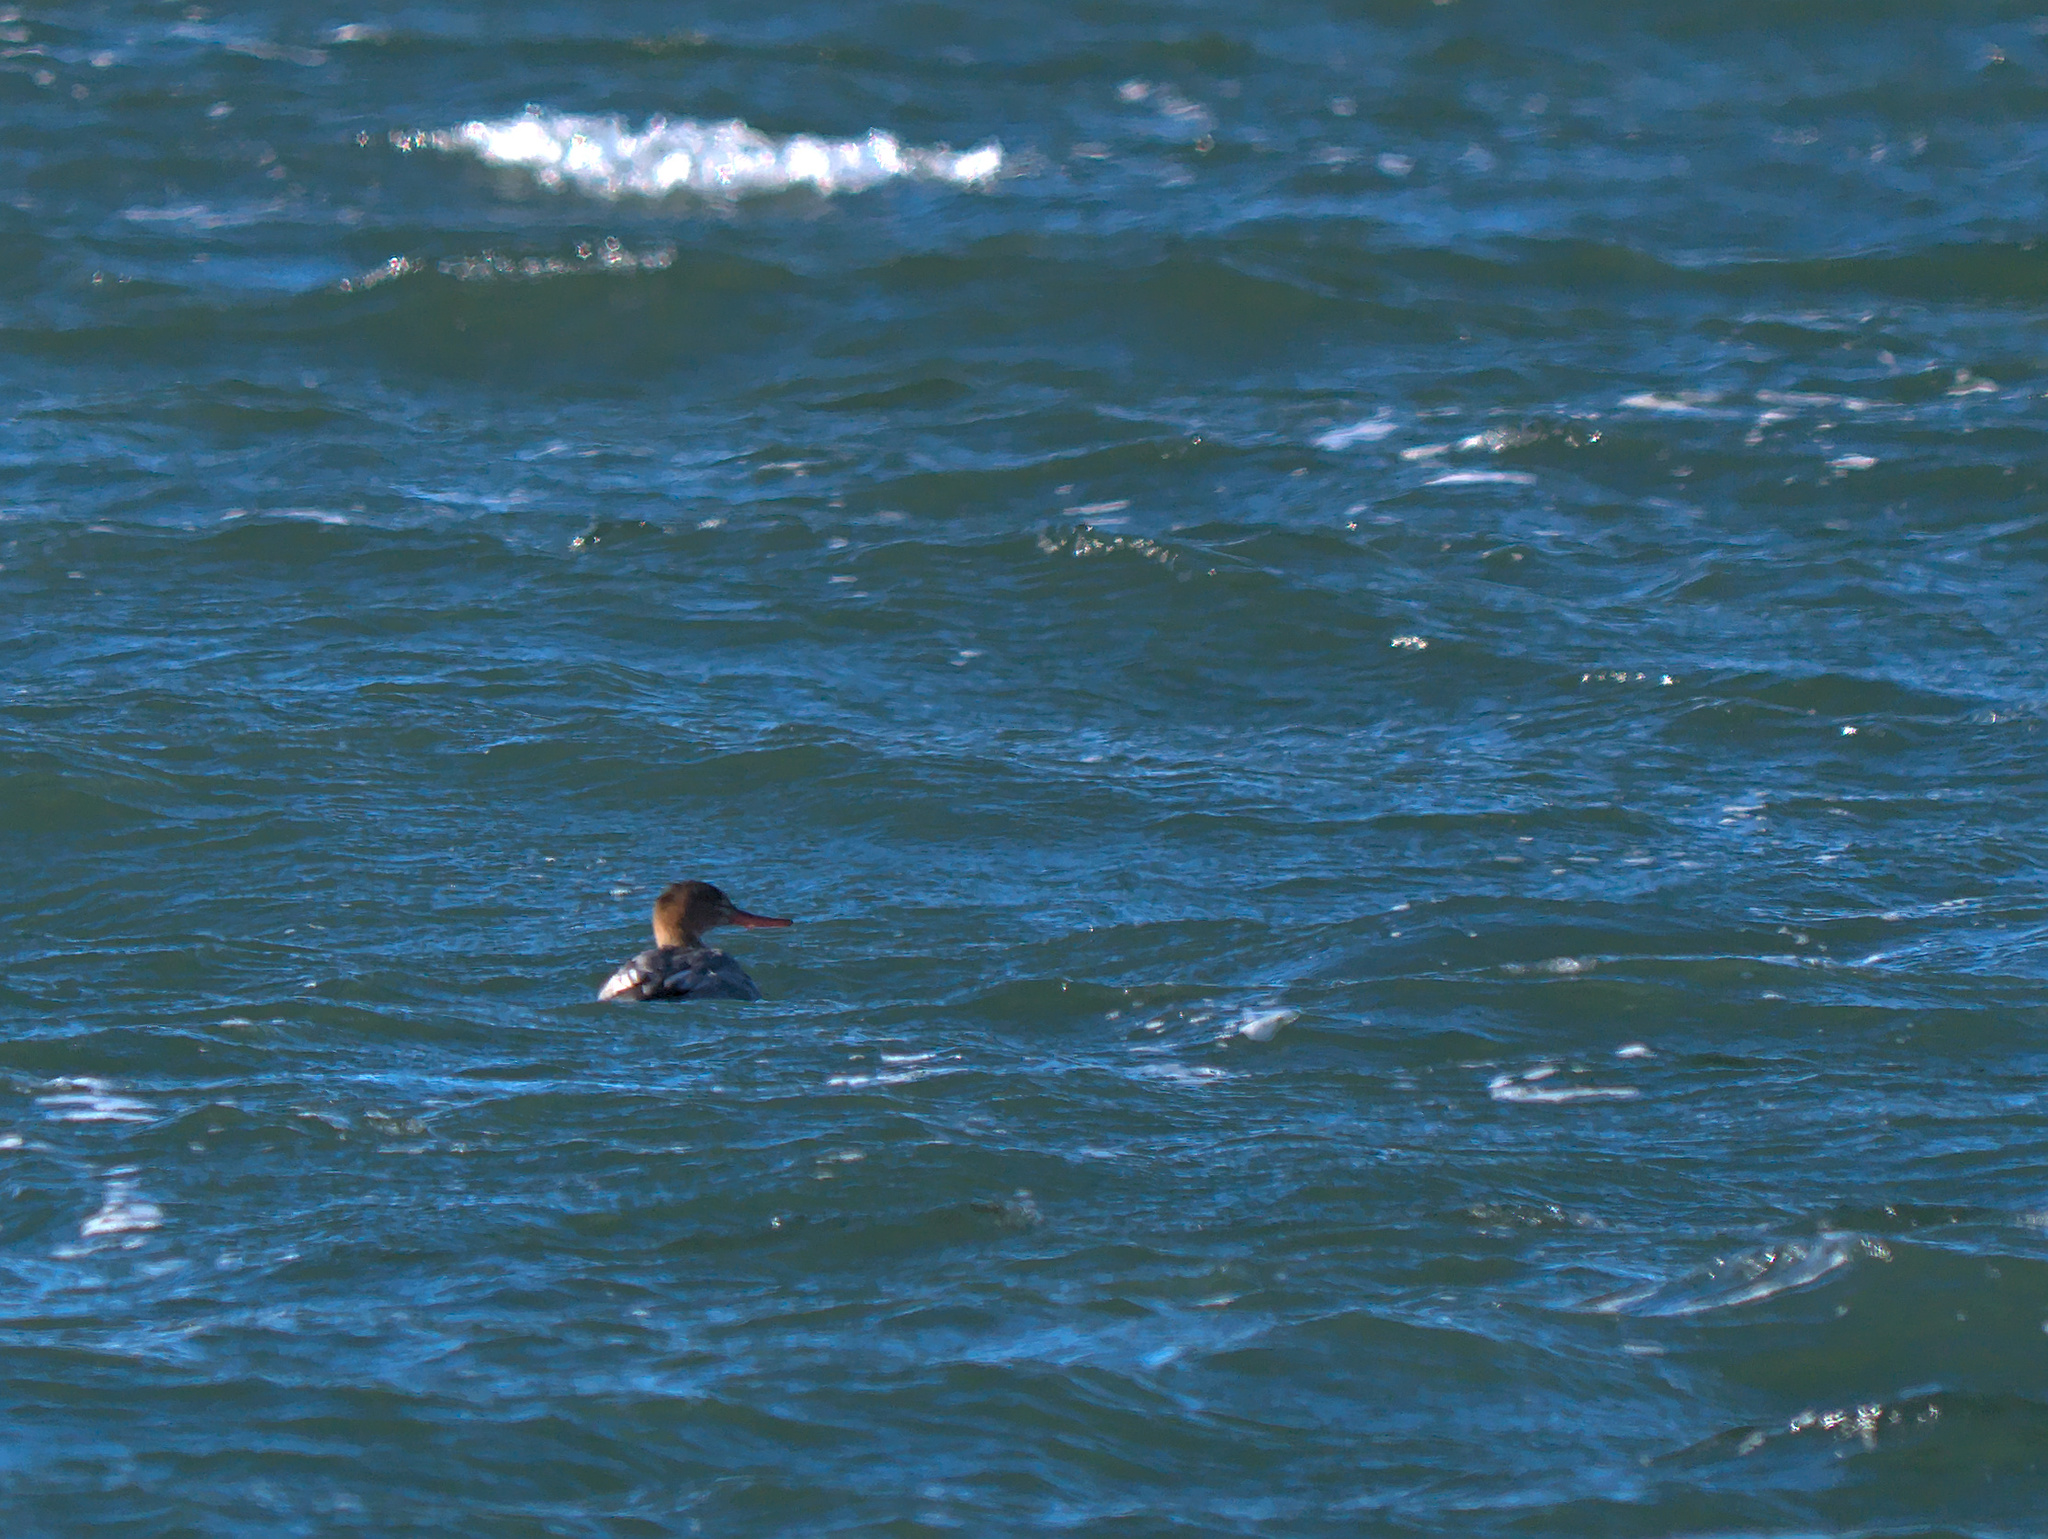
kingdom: Animalia
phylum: Chordata
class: Aves
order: Anseriformes
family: Anatidae
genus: Mergus
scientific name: Mergus serrator
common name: Red-breasted merganser
